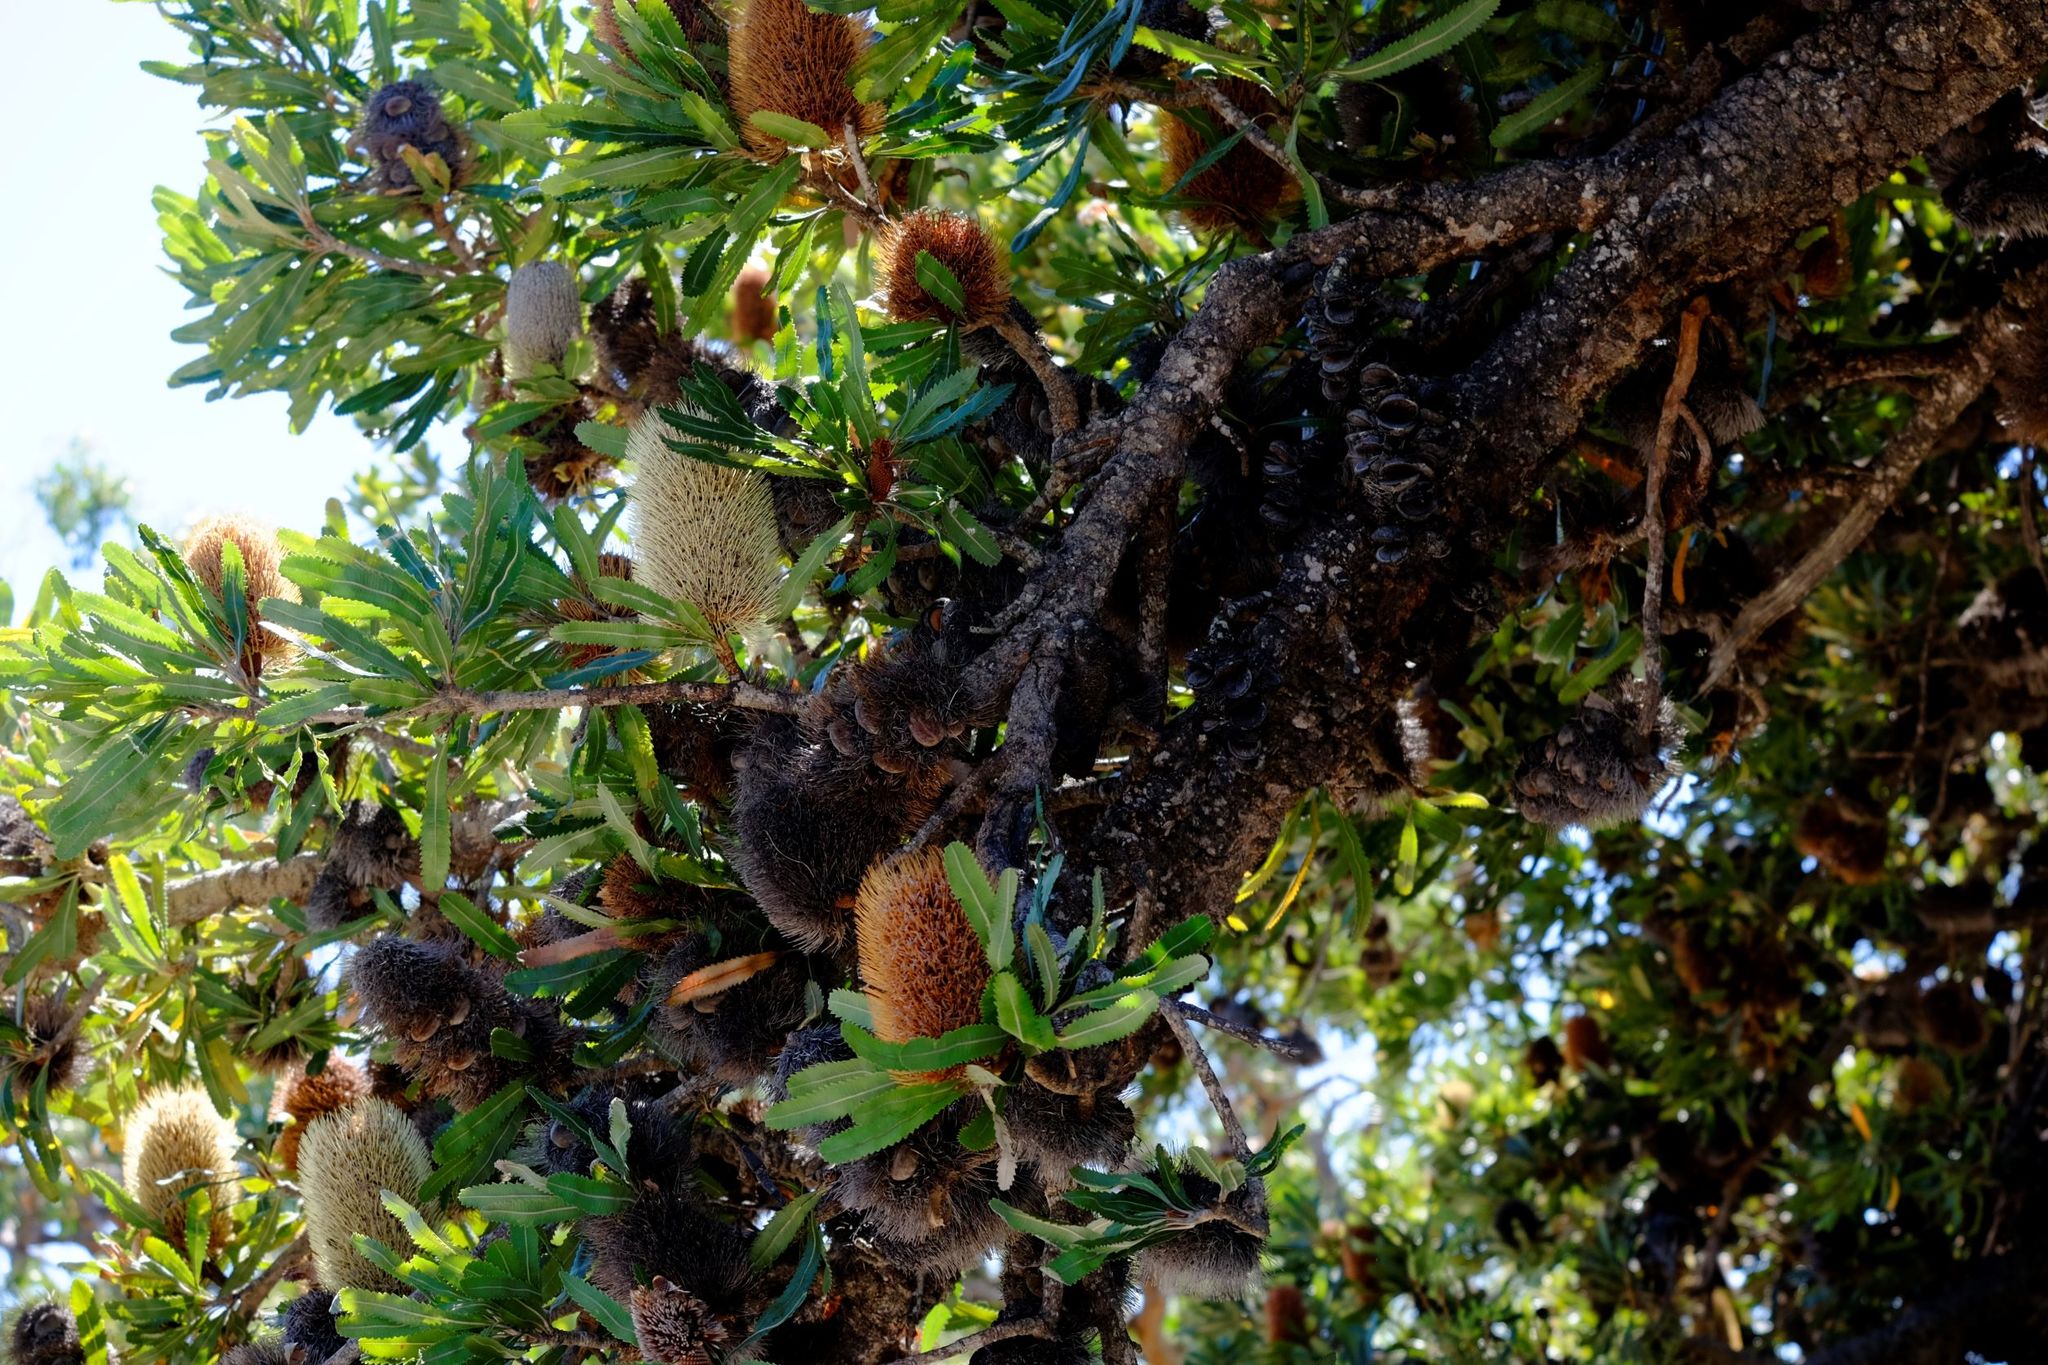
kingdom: Plantae
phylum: Tracheophyta
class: Magnoliopsida
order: Proteales
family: Proteaceae
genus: Banksia
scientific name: Banksia serrata
